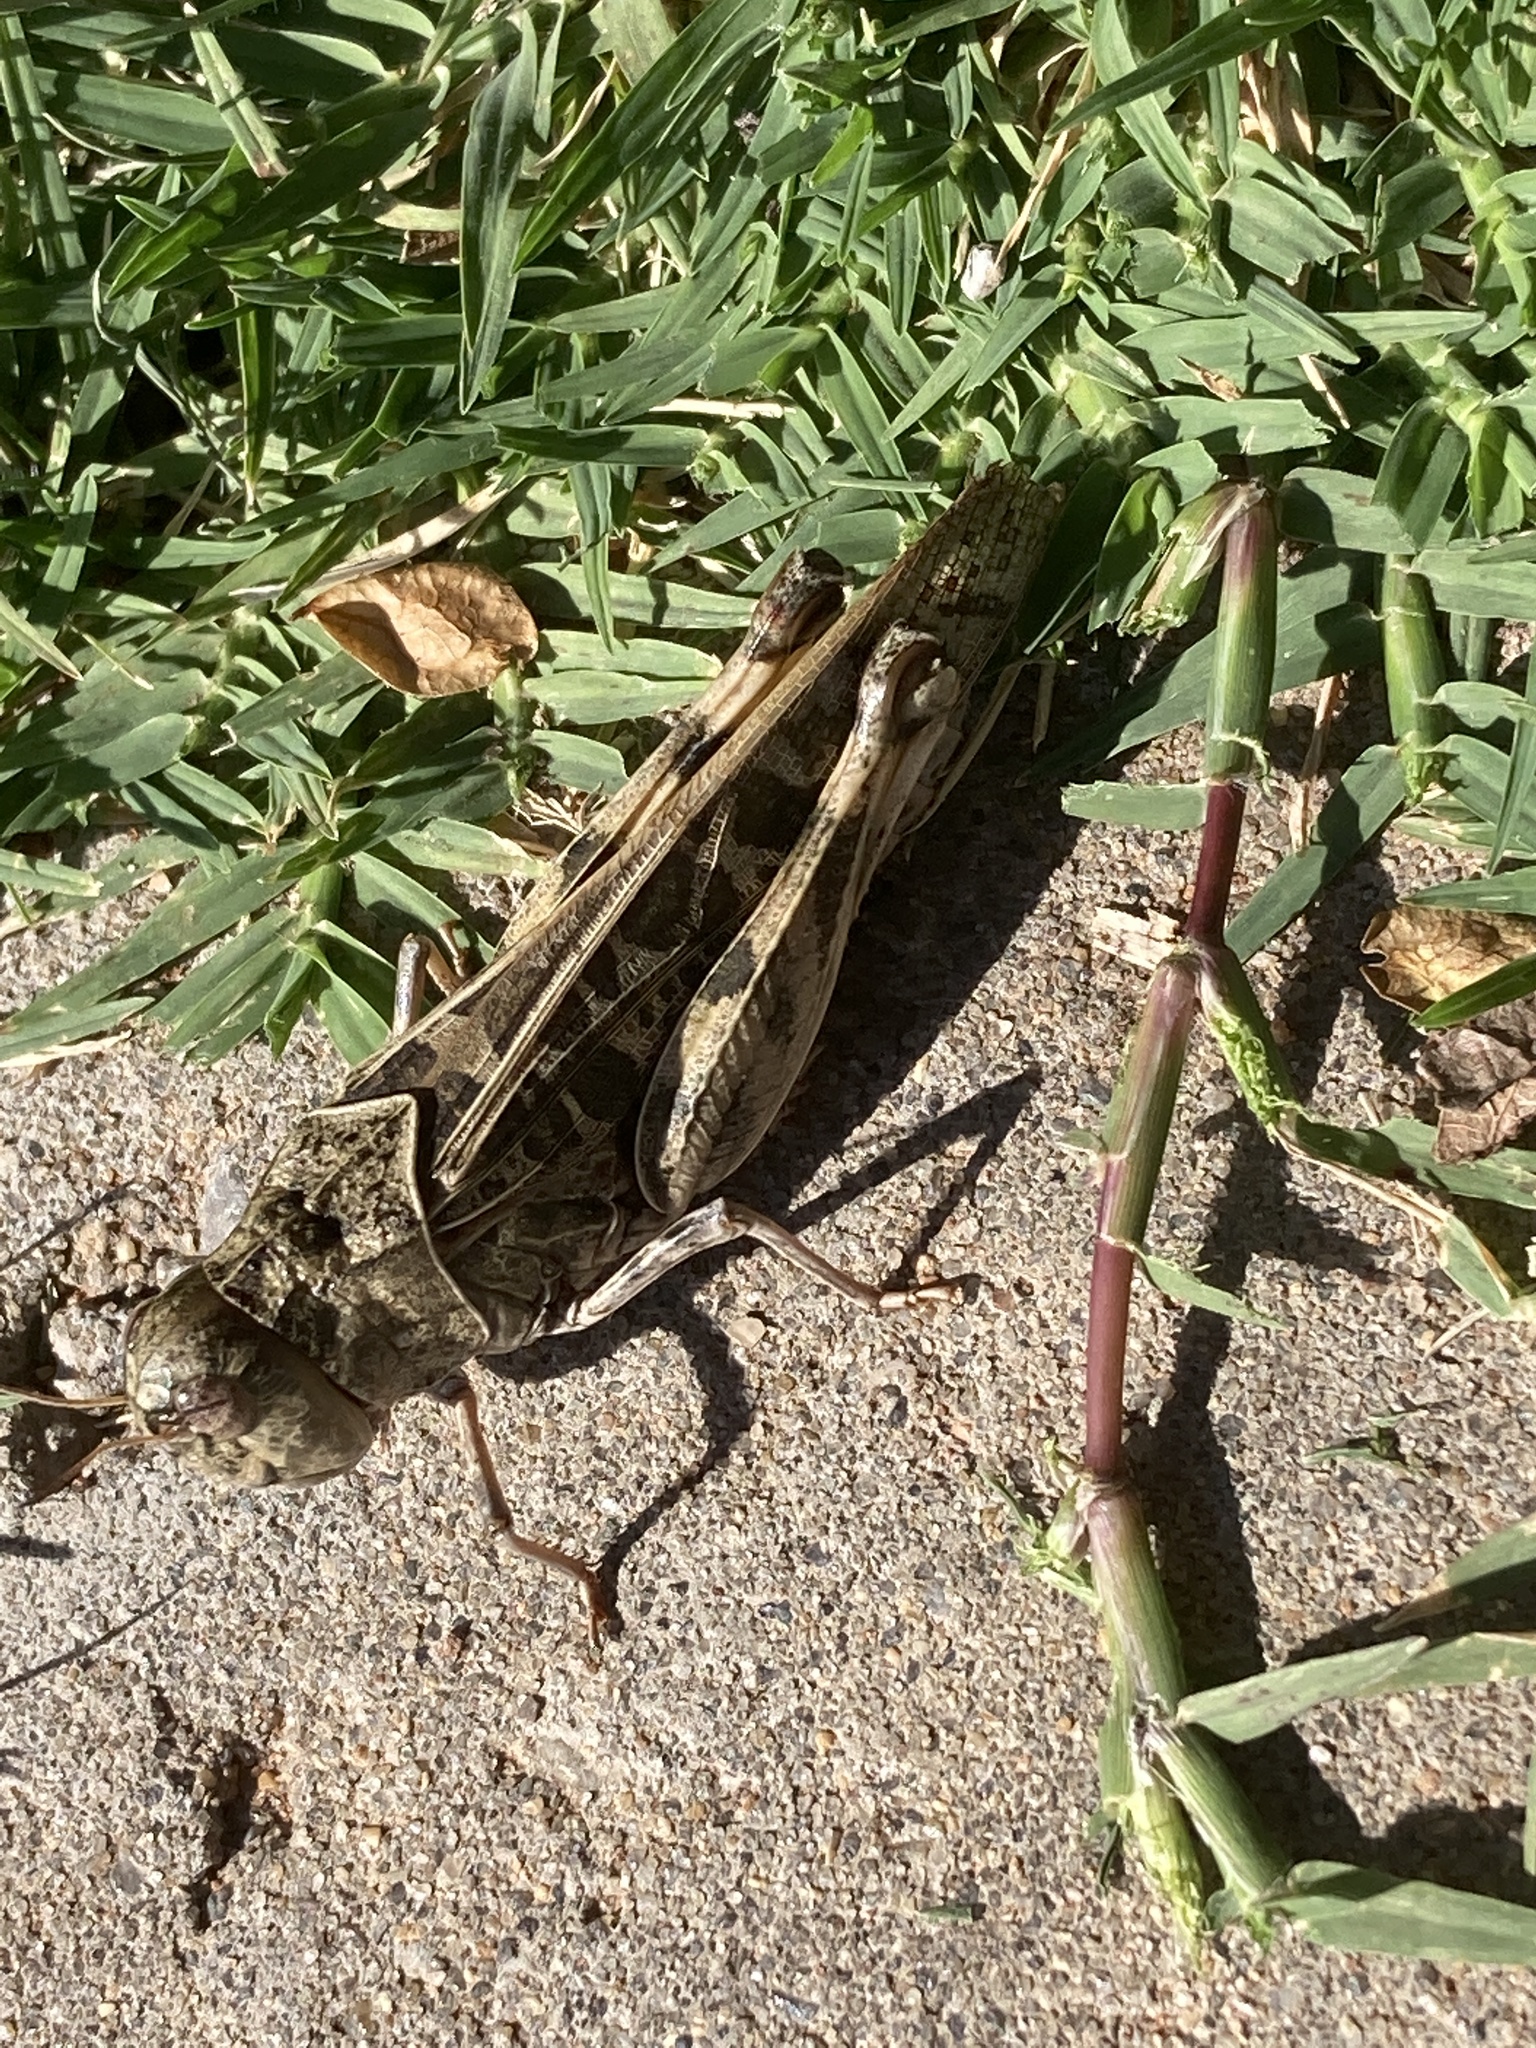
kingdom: Animalia
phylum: Arthropoda
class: Insecta
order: Orthoptera
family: Acrididae
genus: Hippiscus
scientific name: Hippiscus ocelote
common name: Wrinkled grasshopper
